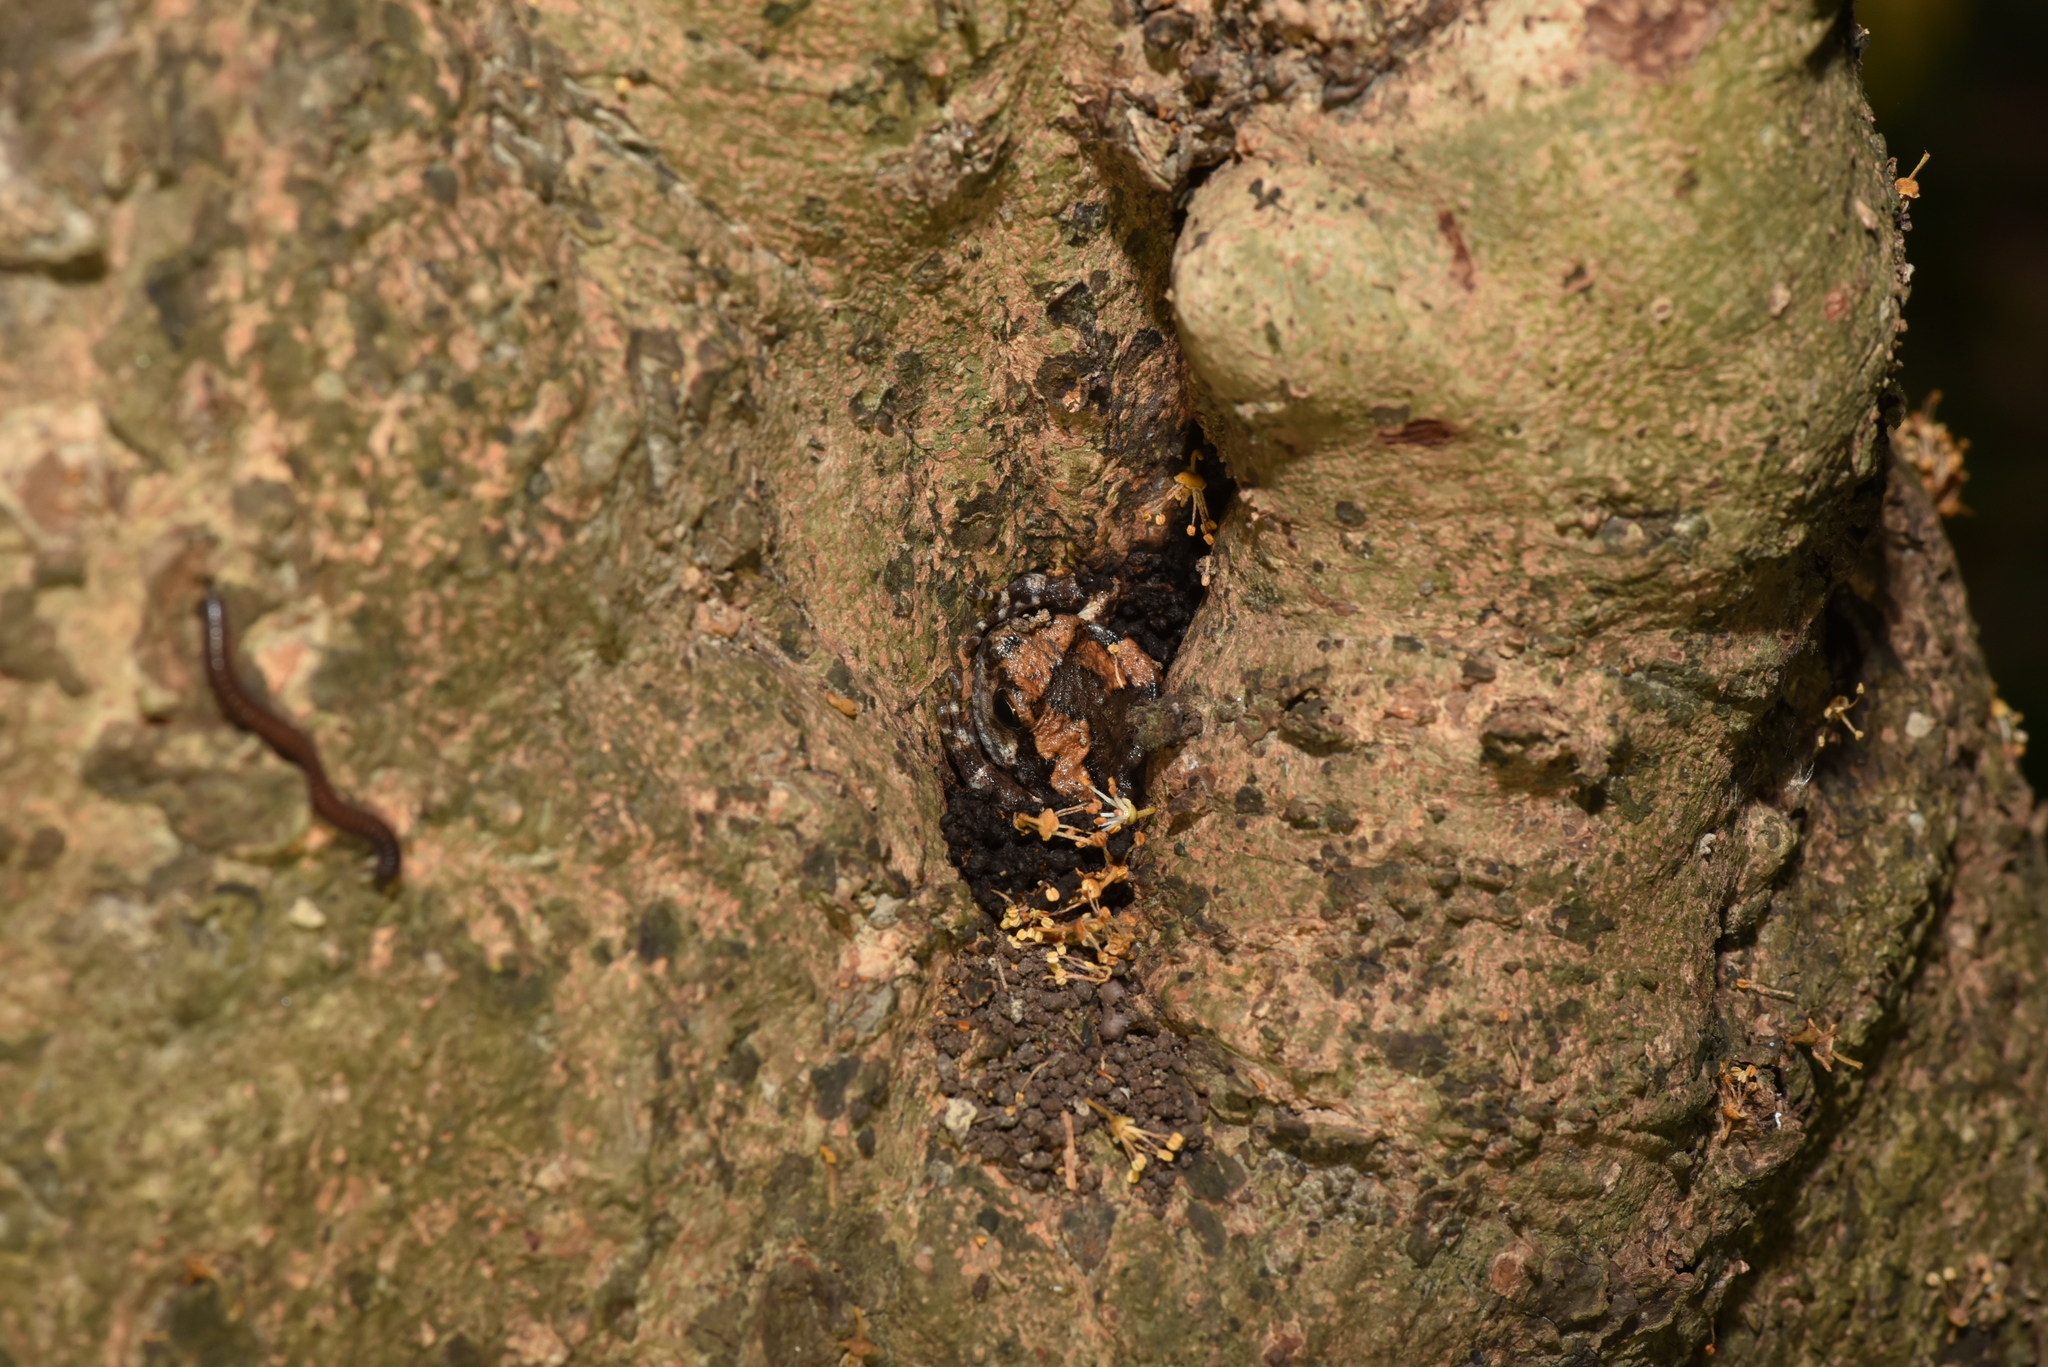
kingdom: Animalia
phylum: Chordata
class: Amphibia
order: Anura
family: Microhylidae
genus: Kaloula
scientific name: Kaloula pulchra
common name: Common,banded bullfrog
